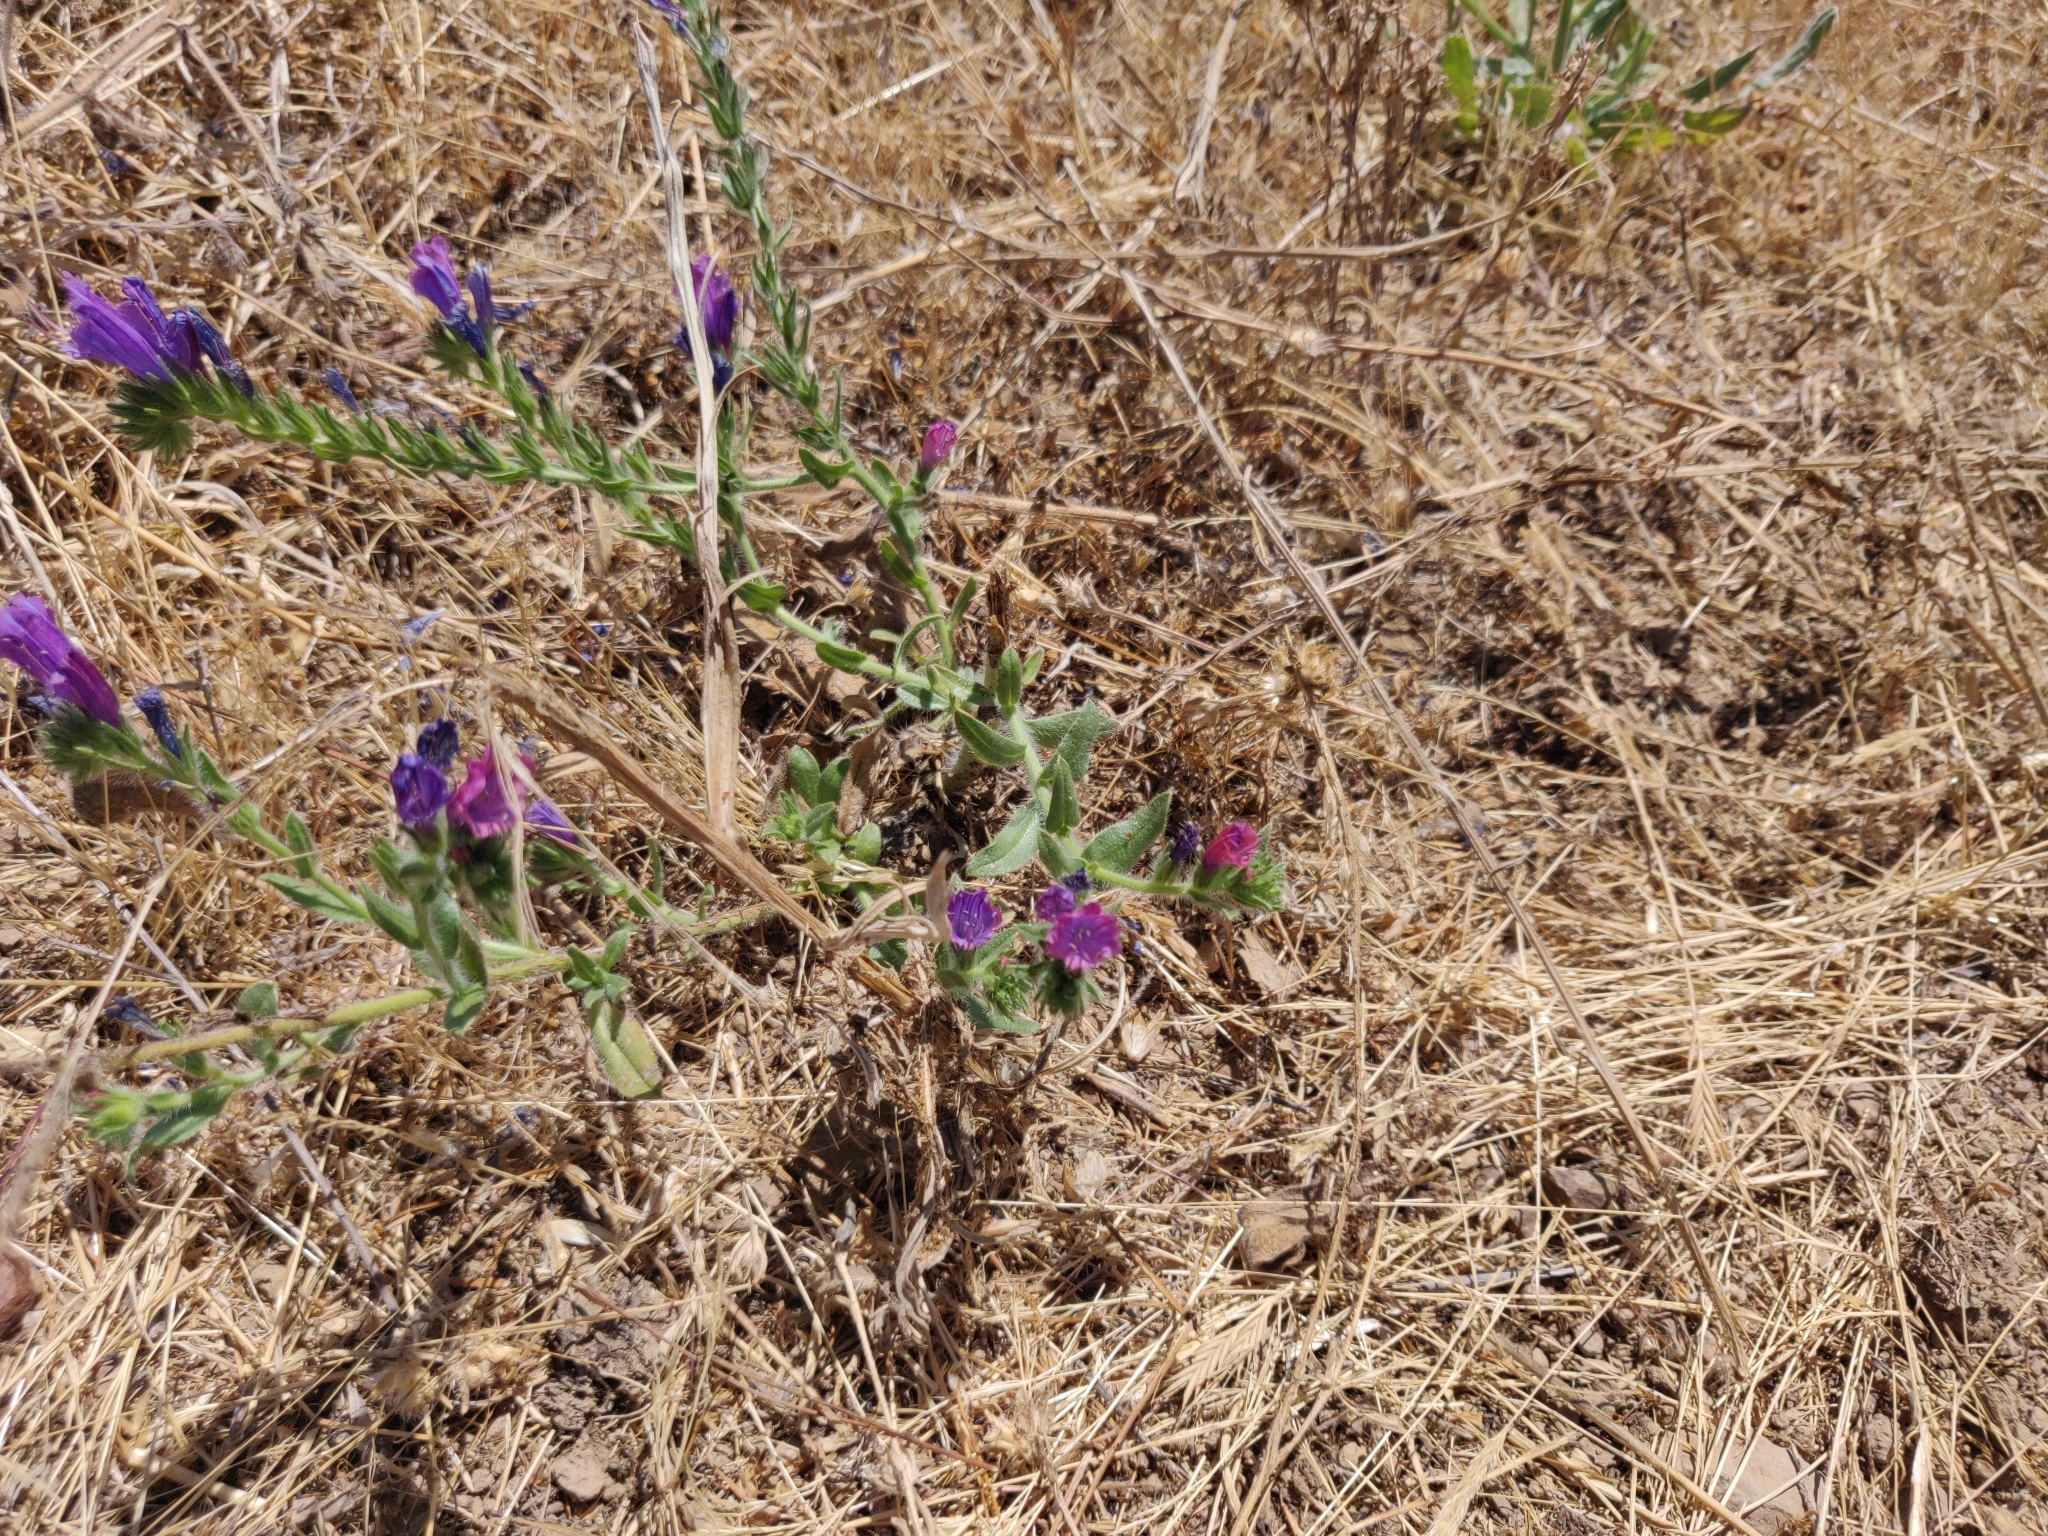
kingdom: Plantae
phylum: Tracheophyta
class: Magnoliopsida
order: Boraginales
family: Boraginaceae
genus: Echium
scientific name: Echium plantagineum
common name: Purple viper's-bugloss
